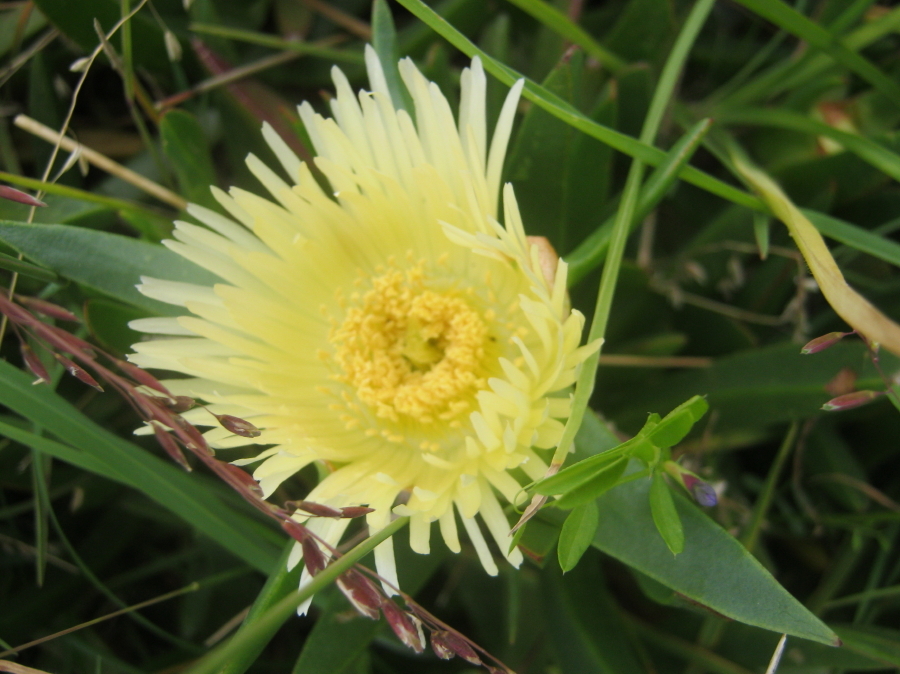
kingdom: Plantae
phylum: Tracheophyta
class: Magnoliopsida
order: Caryophyllales
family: Aizoaceae
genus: Carpobrotus
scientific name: Carpobrotus edulis
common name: Hottentot-fig
